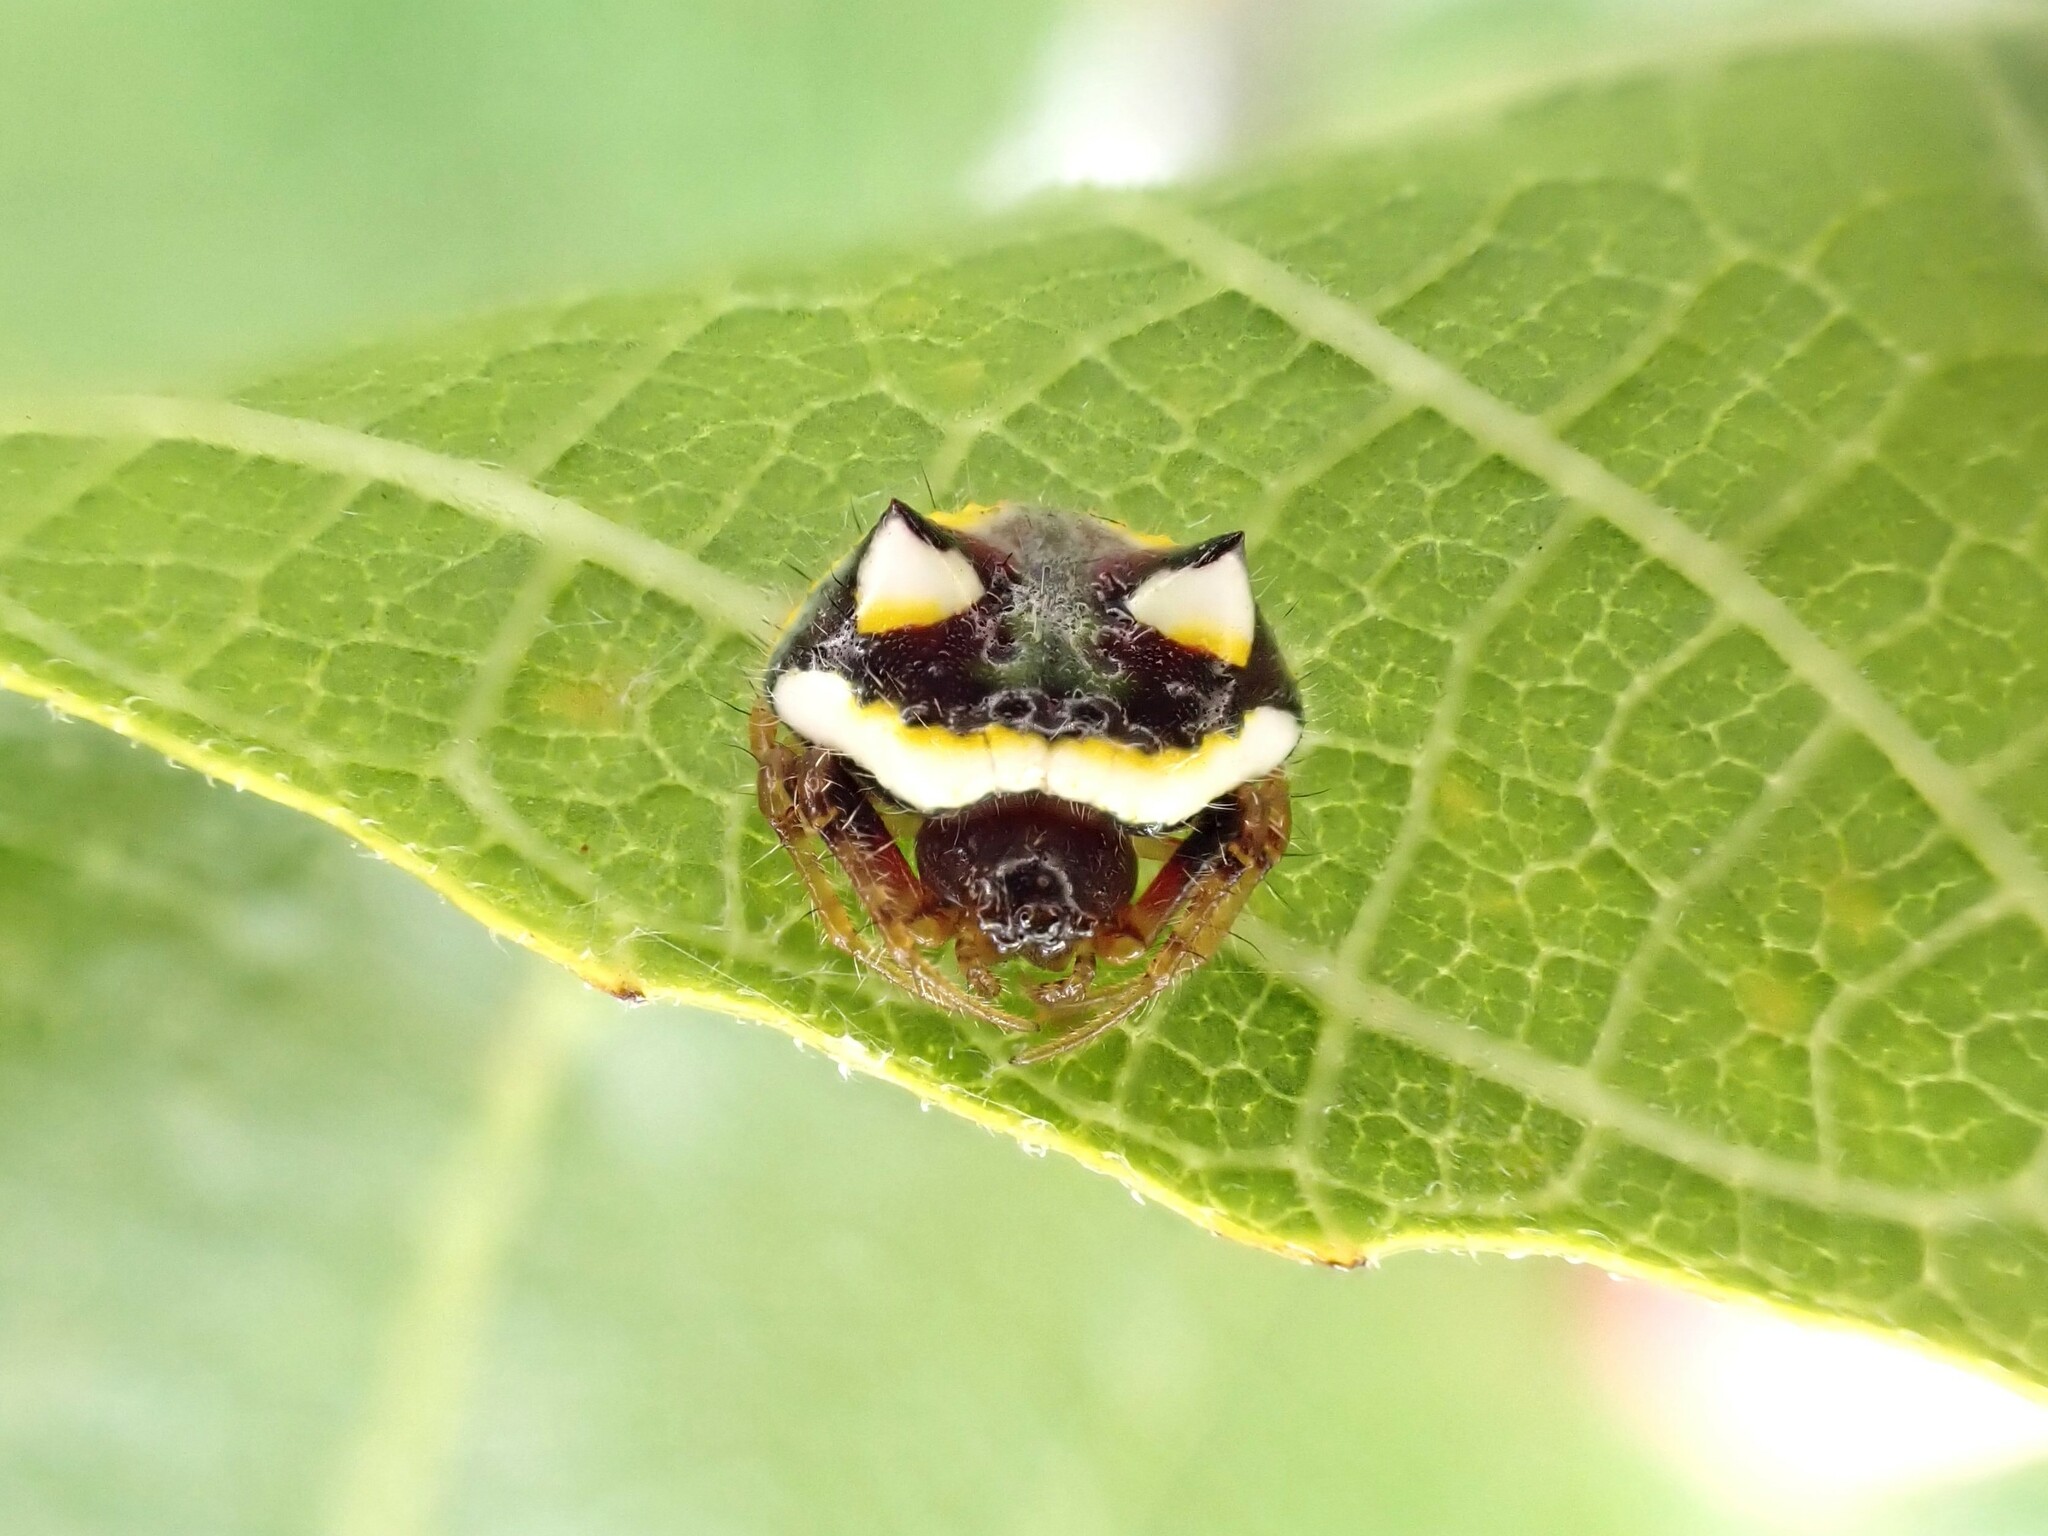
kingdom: Animalia
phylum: Arthropoda
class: Arachnida
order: Araneae
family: Araneidae
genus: Poecilopachys
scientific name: Poecilopachys australasia
